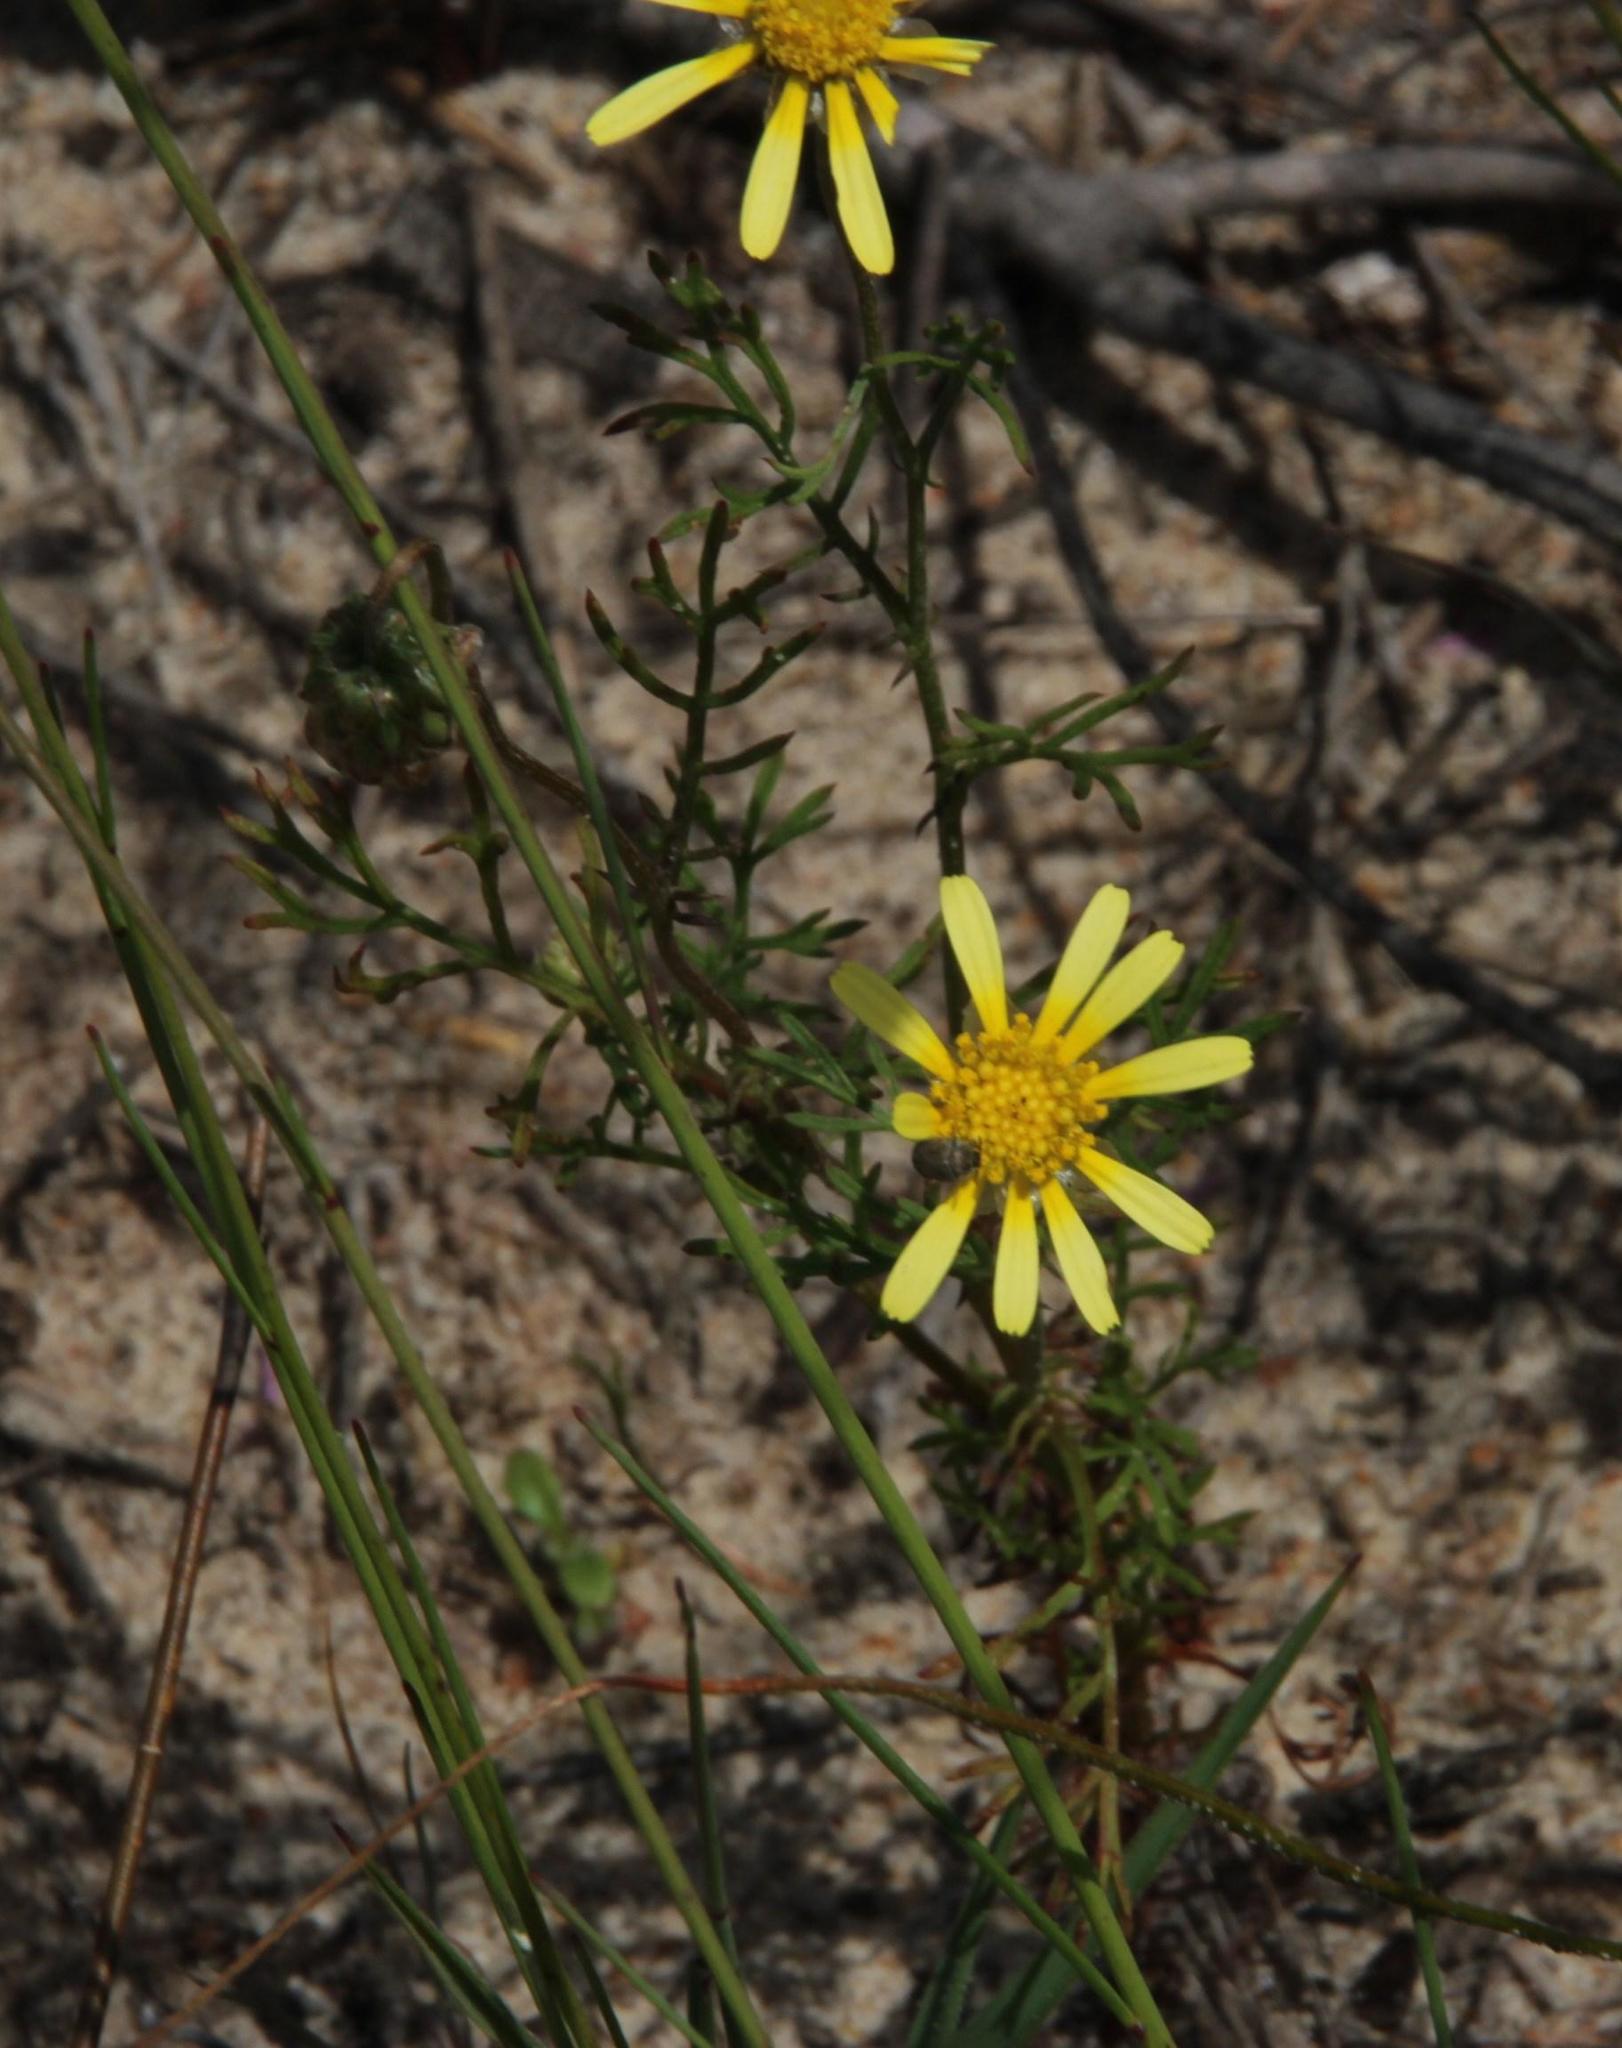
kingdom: Plantae
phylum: Tracheophyta
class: Magnoliopsida
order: Asterales
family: Asteraceae
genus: Ursinia
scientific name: Ursinia anthemoides
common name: Ursinia
